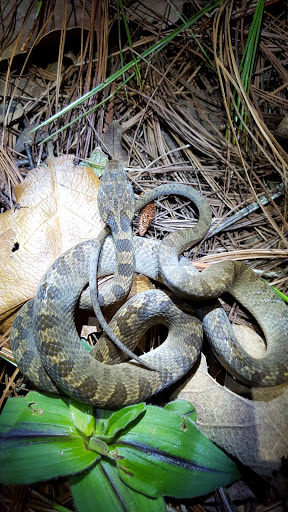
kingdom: Animalia
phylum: Chordata
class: Squamata
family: Colubridae
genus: Leptodeira
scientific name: Leptodeira septentrionalis
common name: Northern cat-eyed snake
